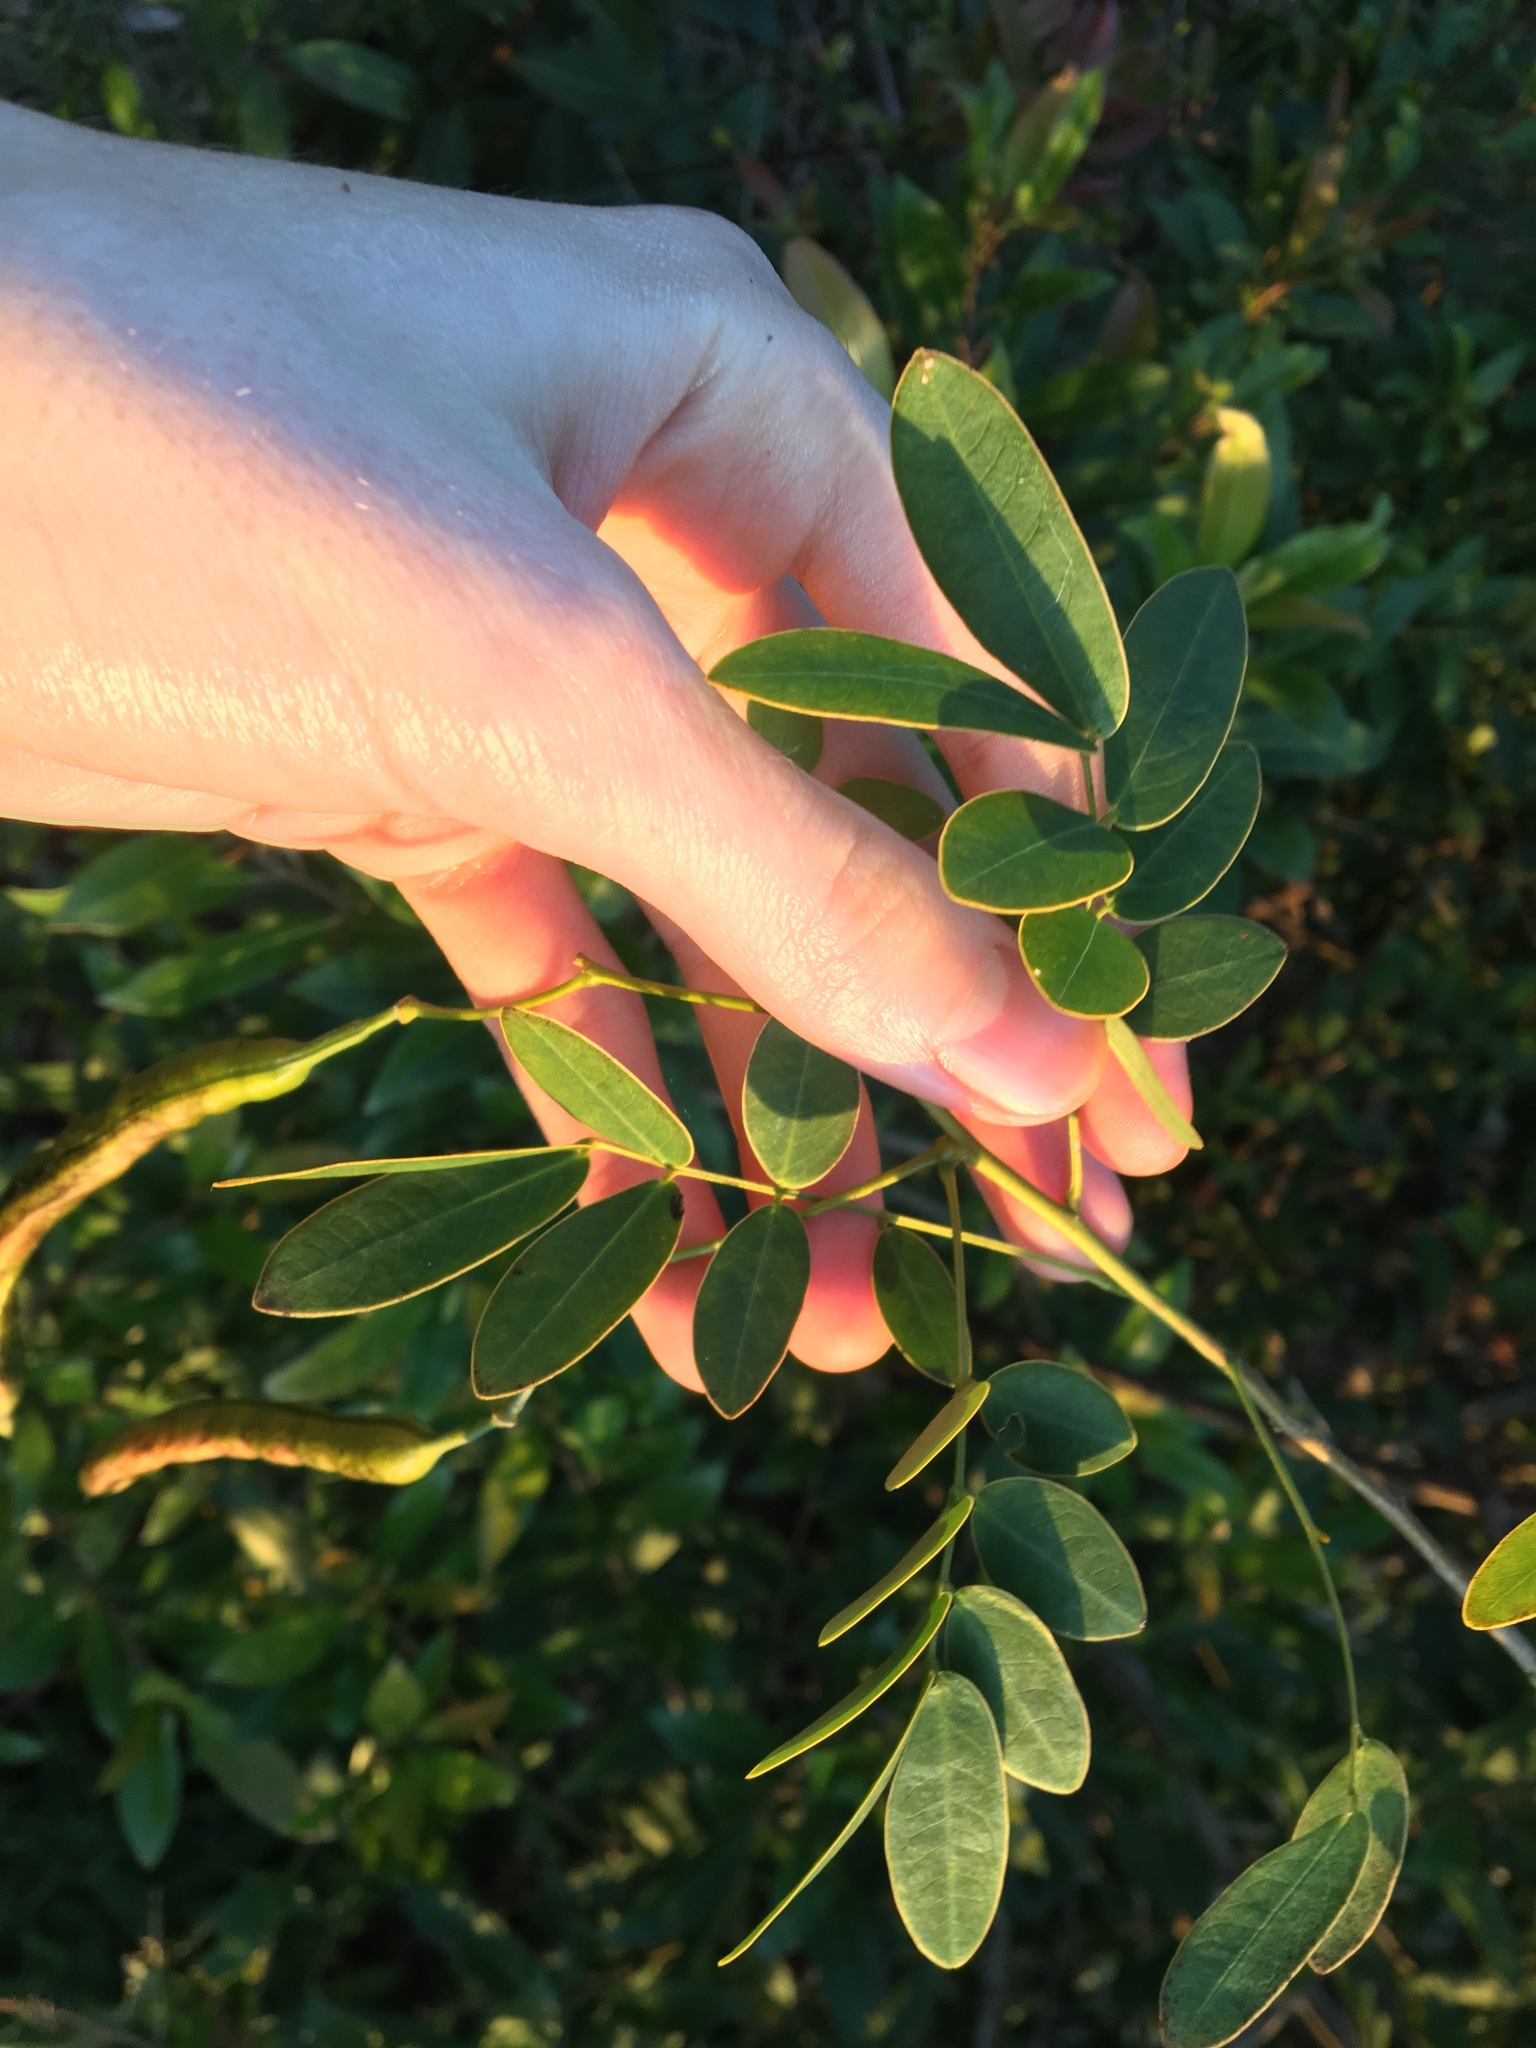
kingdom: Plantae
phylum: Tracheophyta
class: Magnoliopsida
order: Fabales
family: Fabaceae
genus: Senna
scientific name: Senna pendula
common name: Easter cassia
